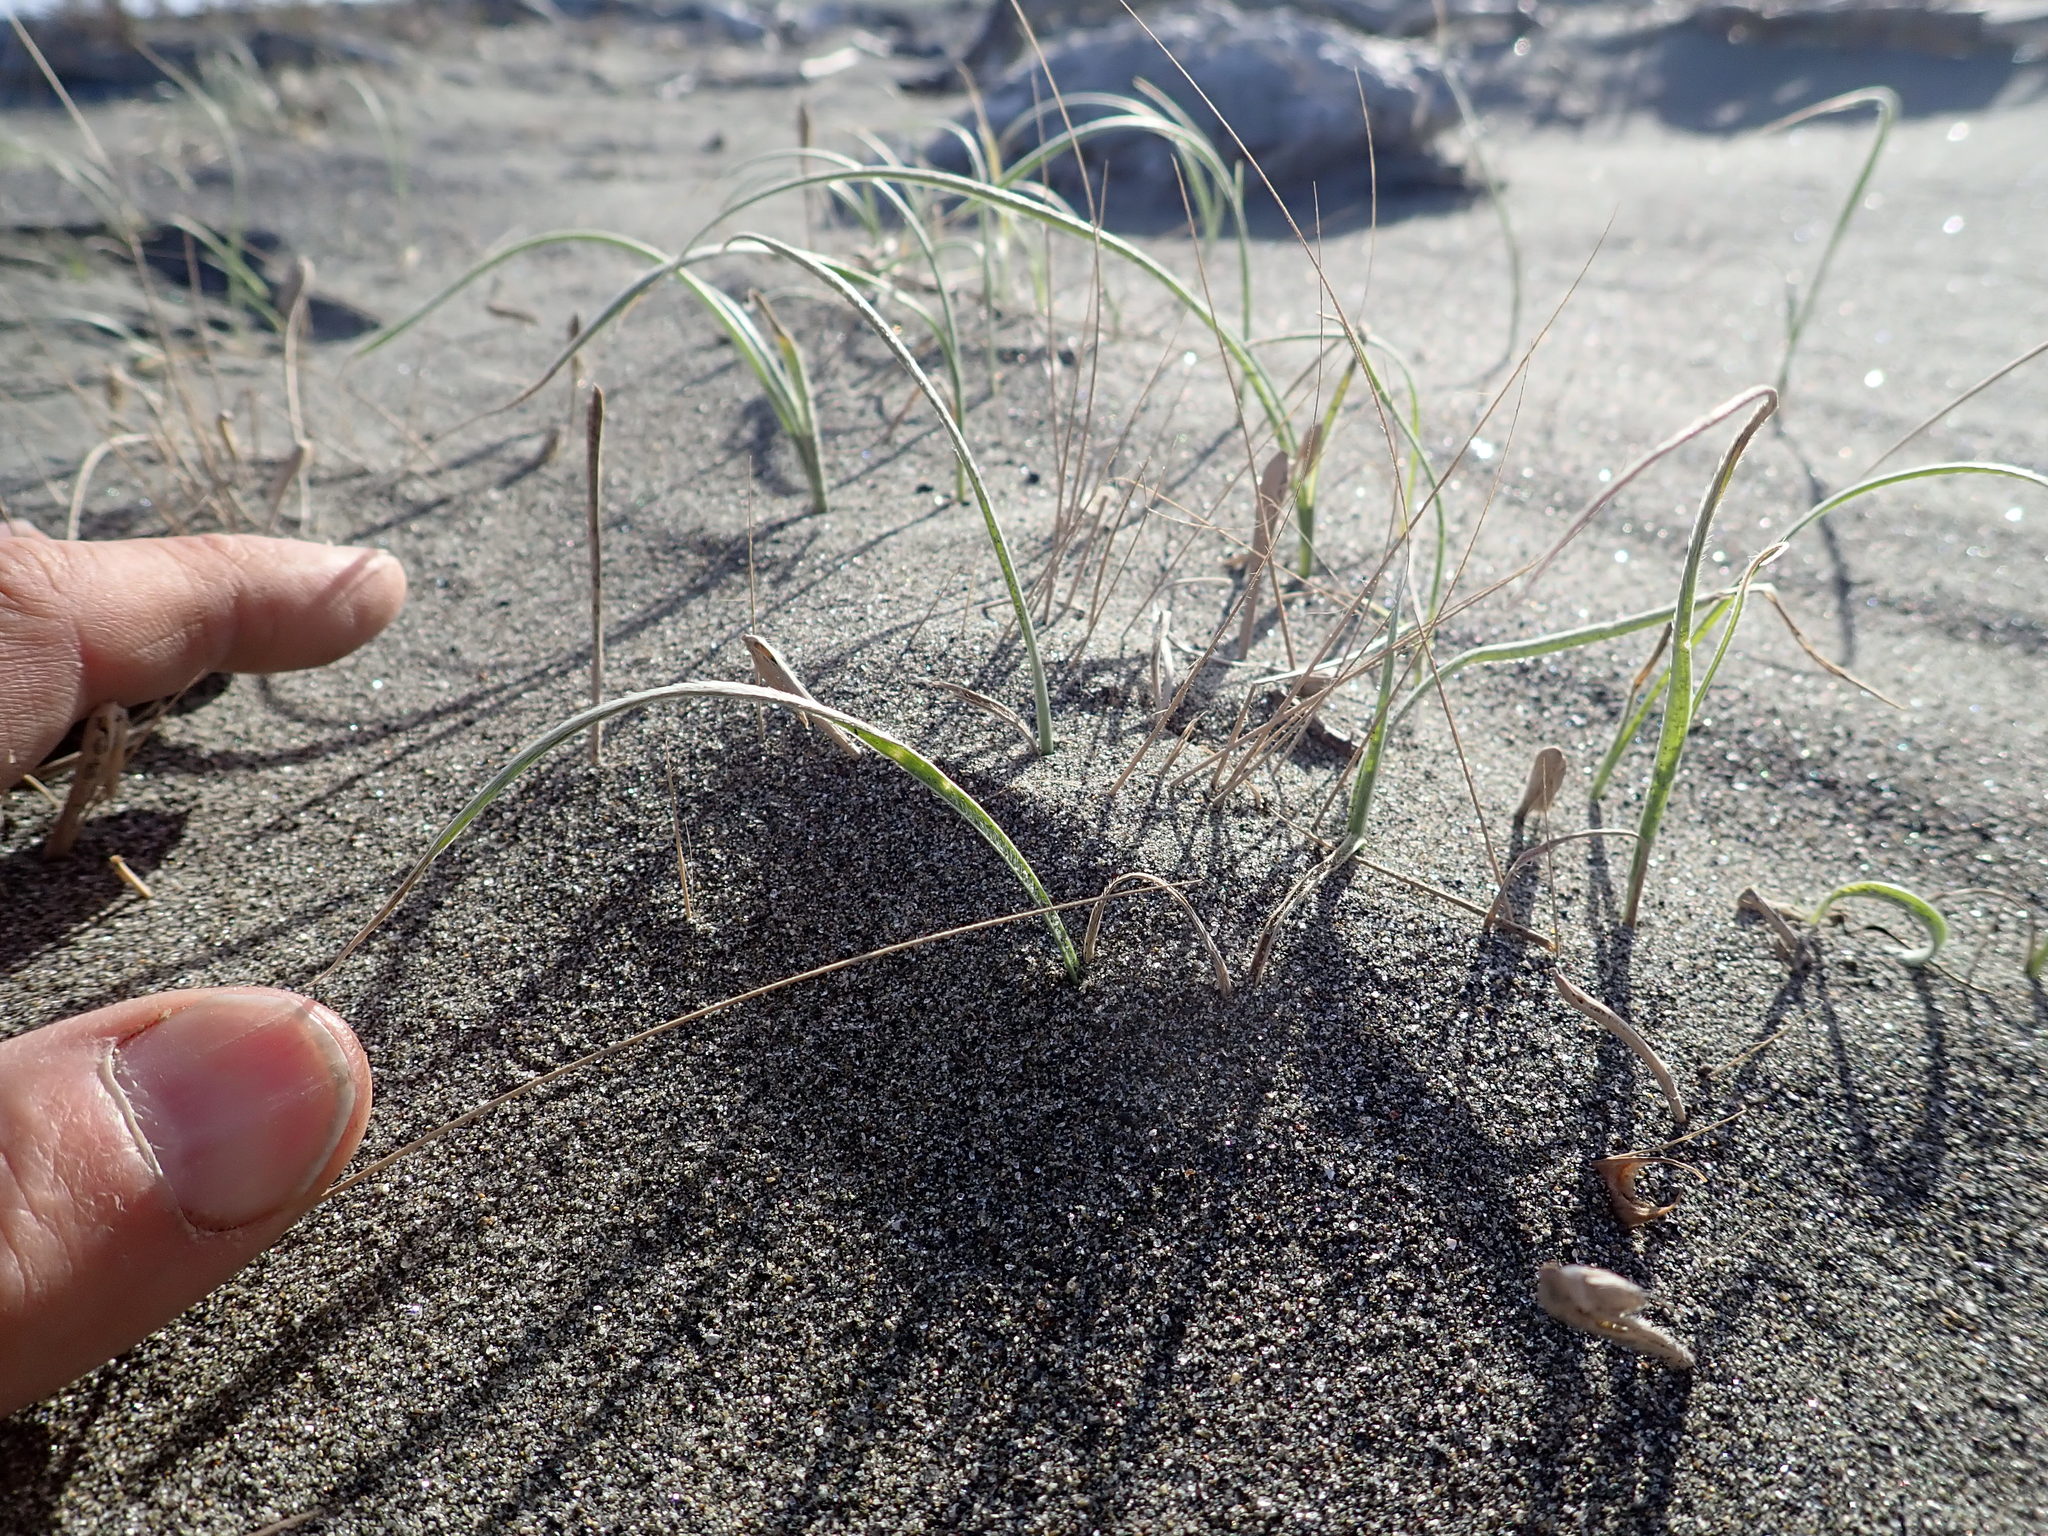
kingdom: Plantae
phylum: Tracheophyta
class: Liliopsida
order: Poales
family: Poaceae
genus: Spinifex
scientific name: Spinifex sericeus
